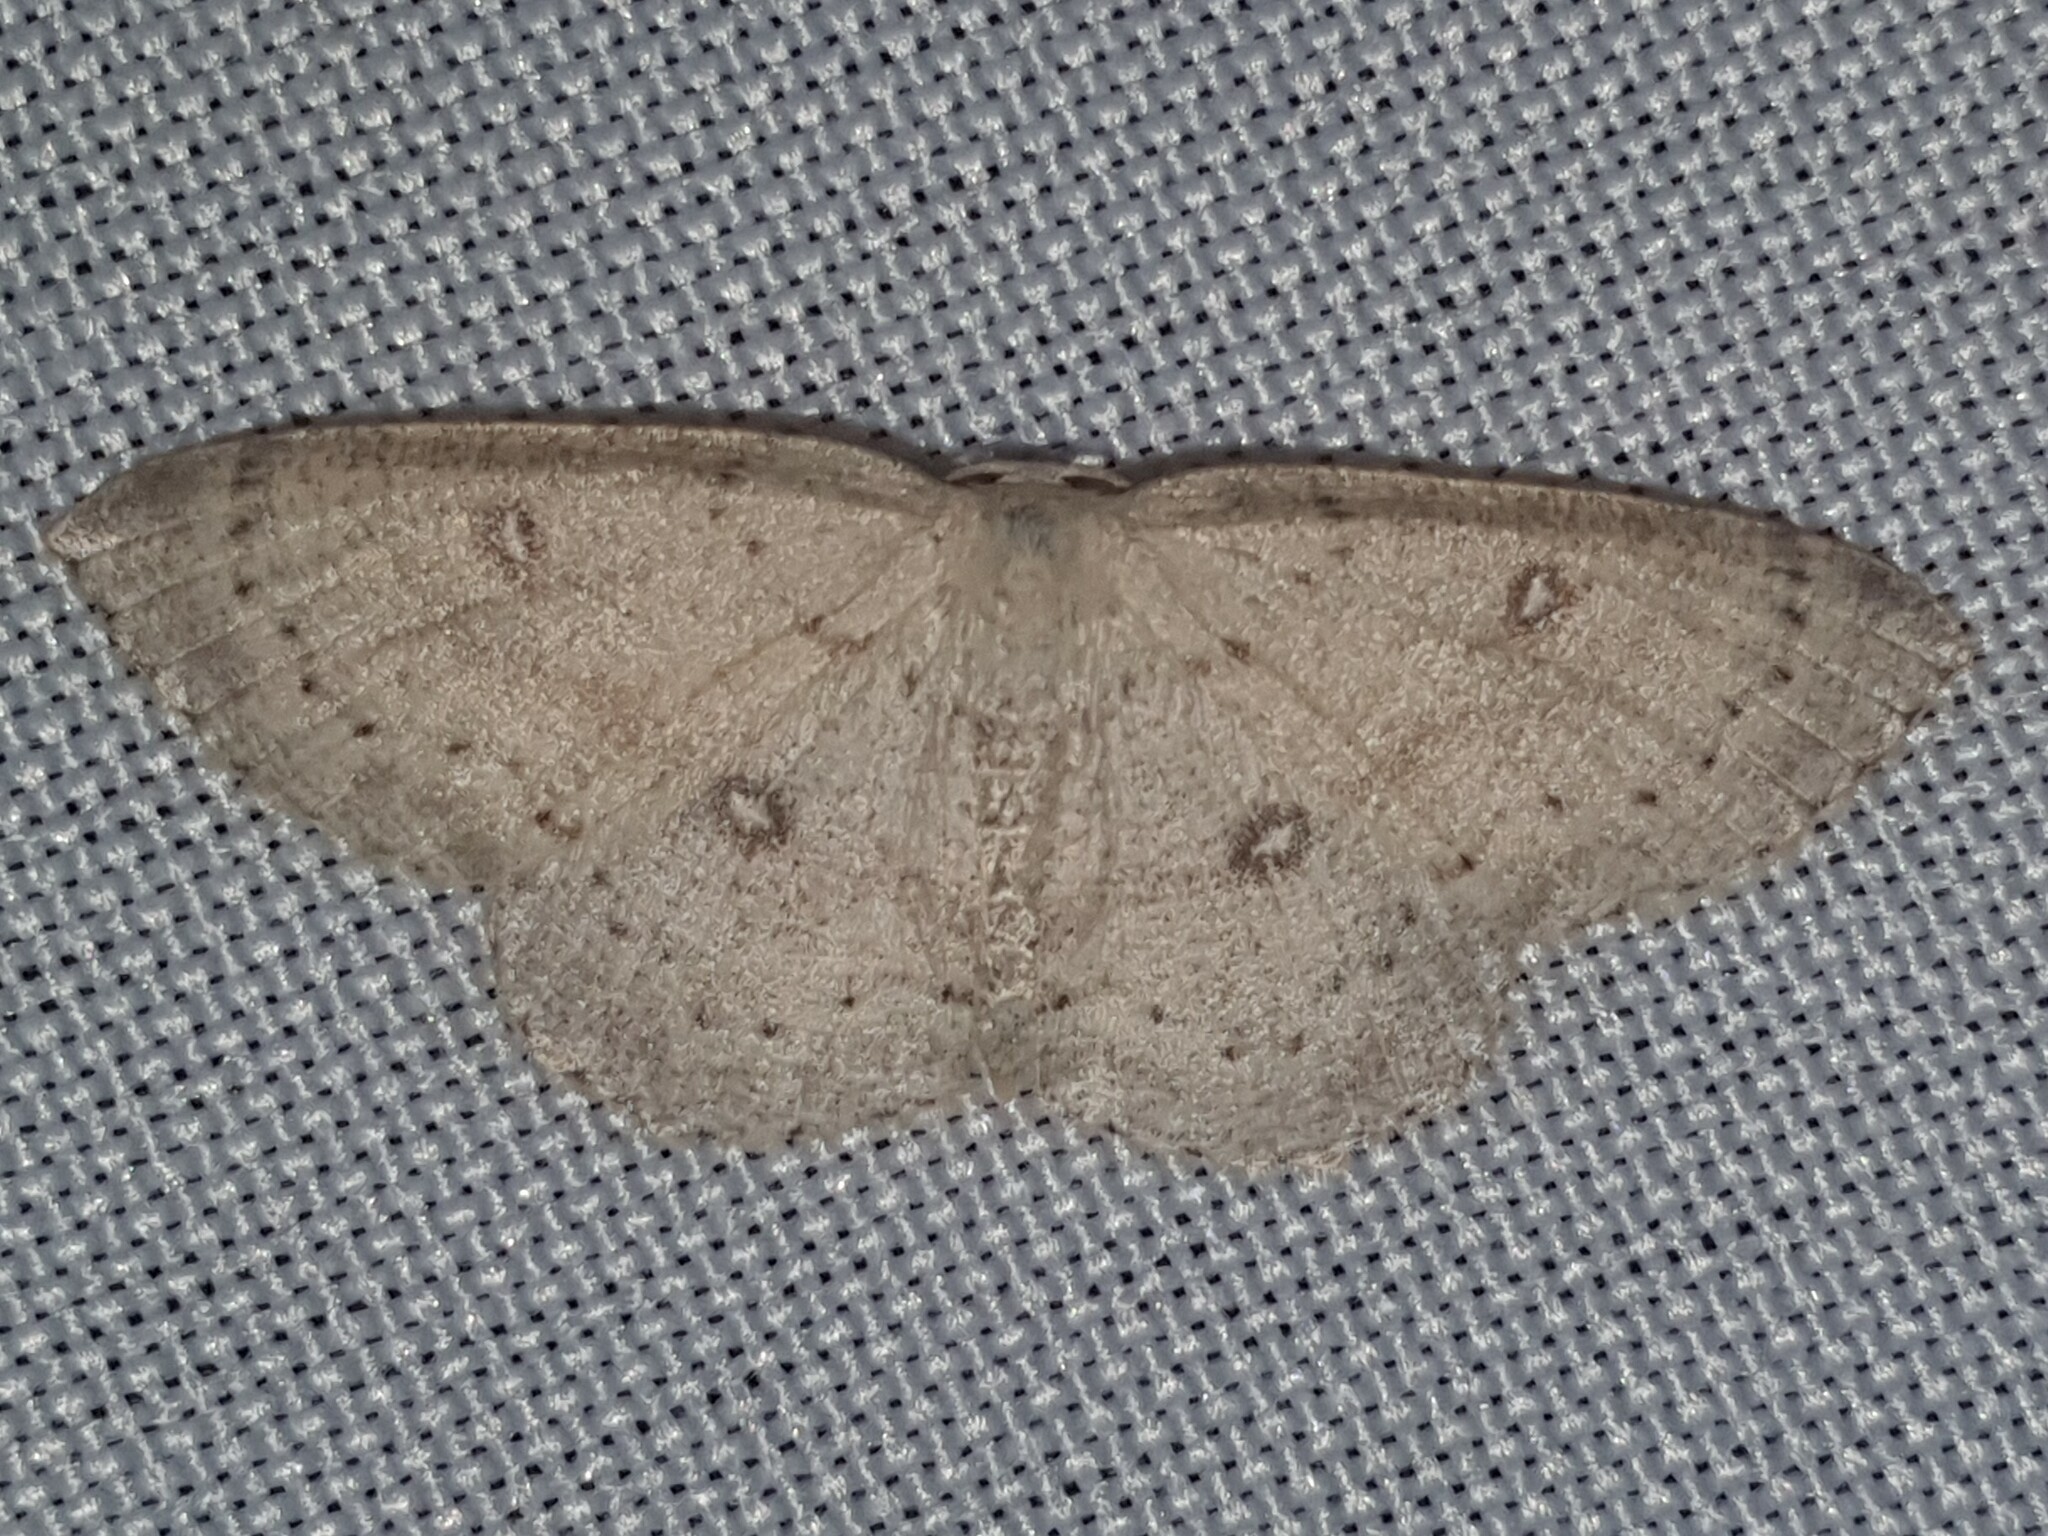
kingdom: Animalia
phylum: Arthropoda
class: Insecta
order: Lepidoptera
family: Geometridae
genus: Cyclophora
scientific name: Cyclophora albipunctata
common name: Birch mocha
